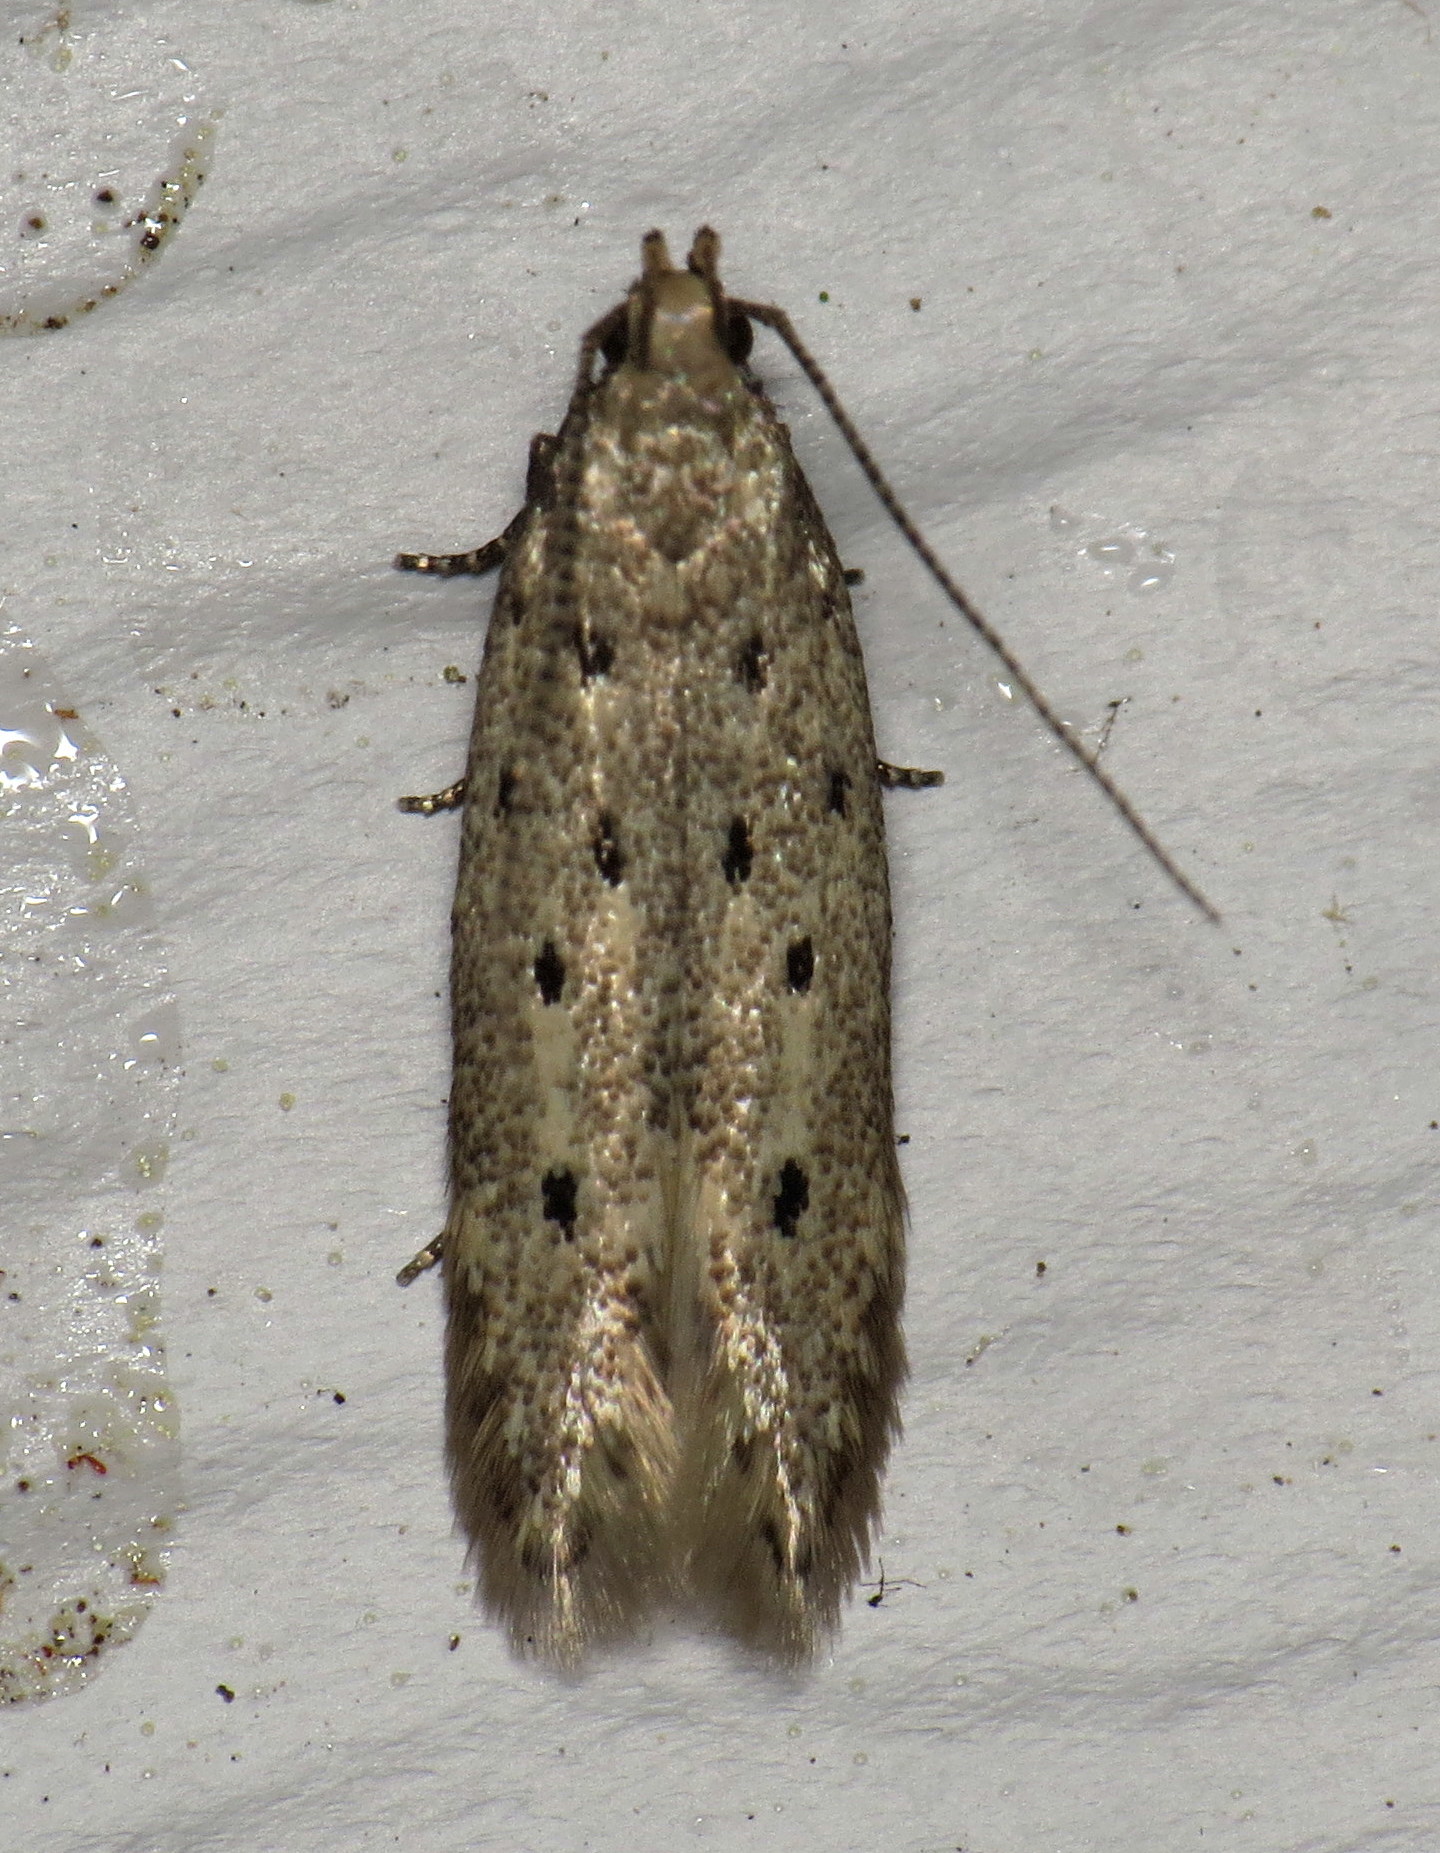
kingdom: Animalia
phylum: Arthropoda
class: Insecta
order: Lepidoptera
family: Gelechiidae
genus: Monochroa
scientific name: Monochroa quinquepunctella
